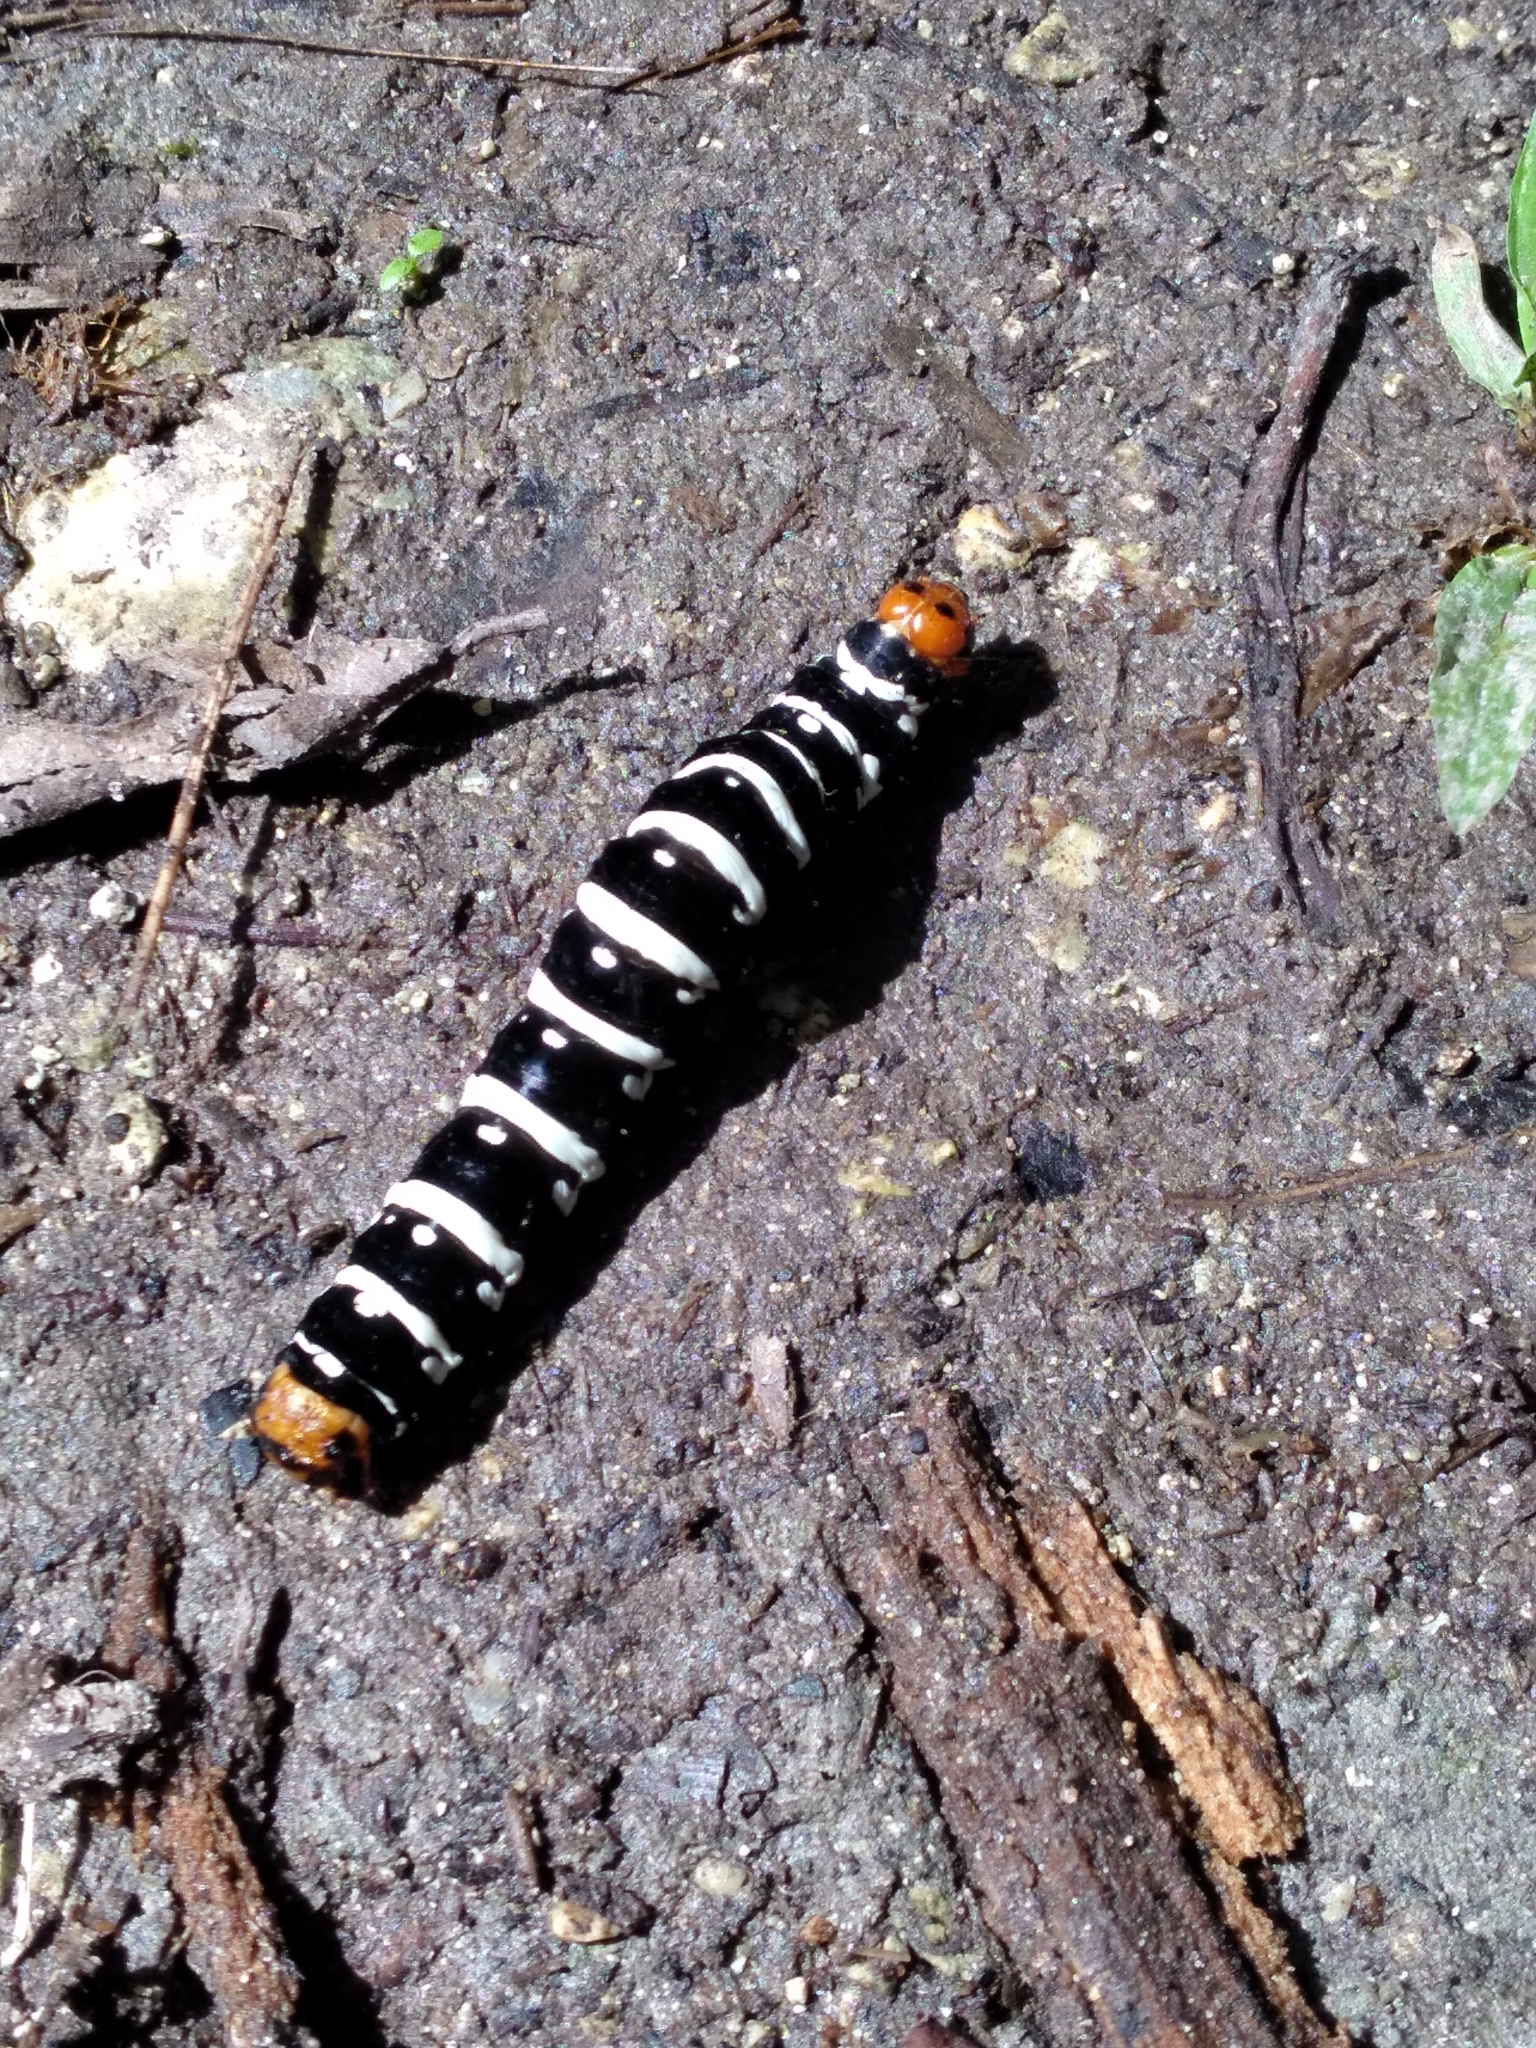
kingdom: Animalia
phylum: Arthropoda
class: Insecta
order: Lepidoptera
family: Noctuidae
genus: Xanthopastis
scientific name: Xanthopastis regnatrix
